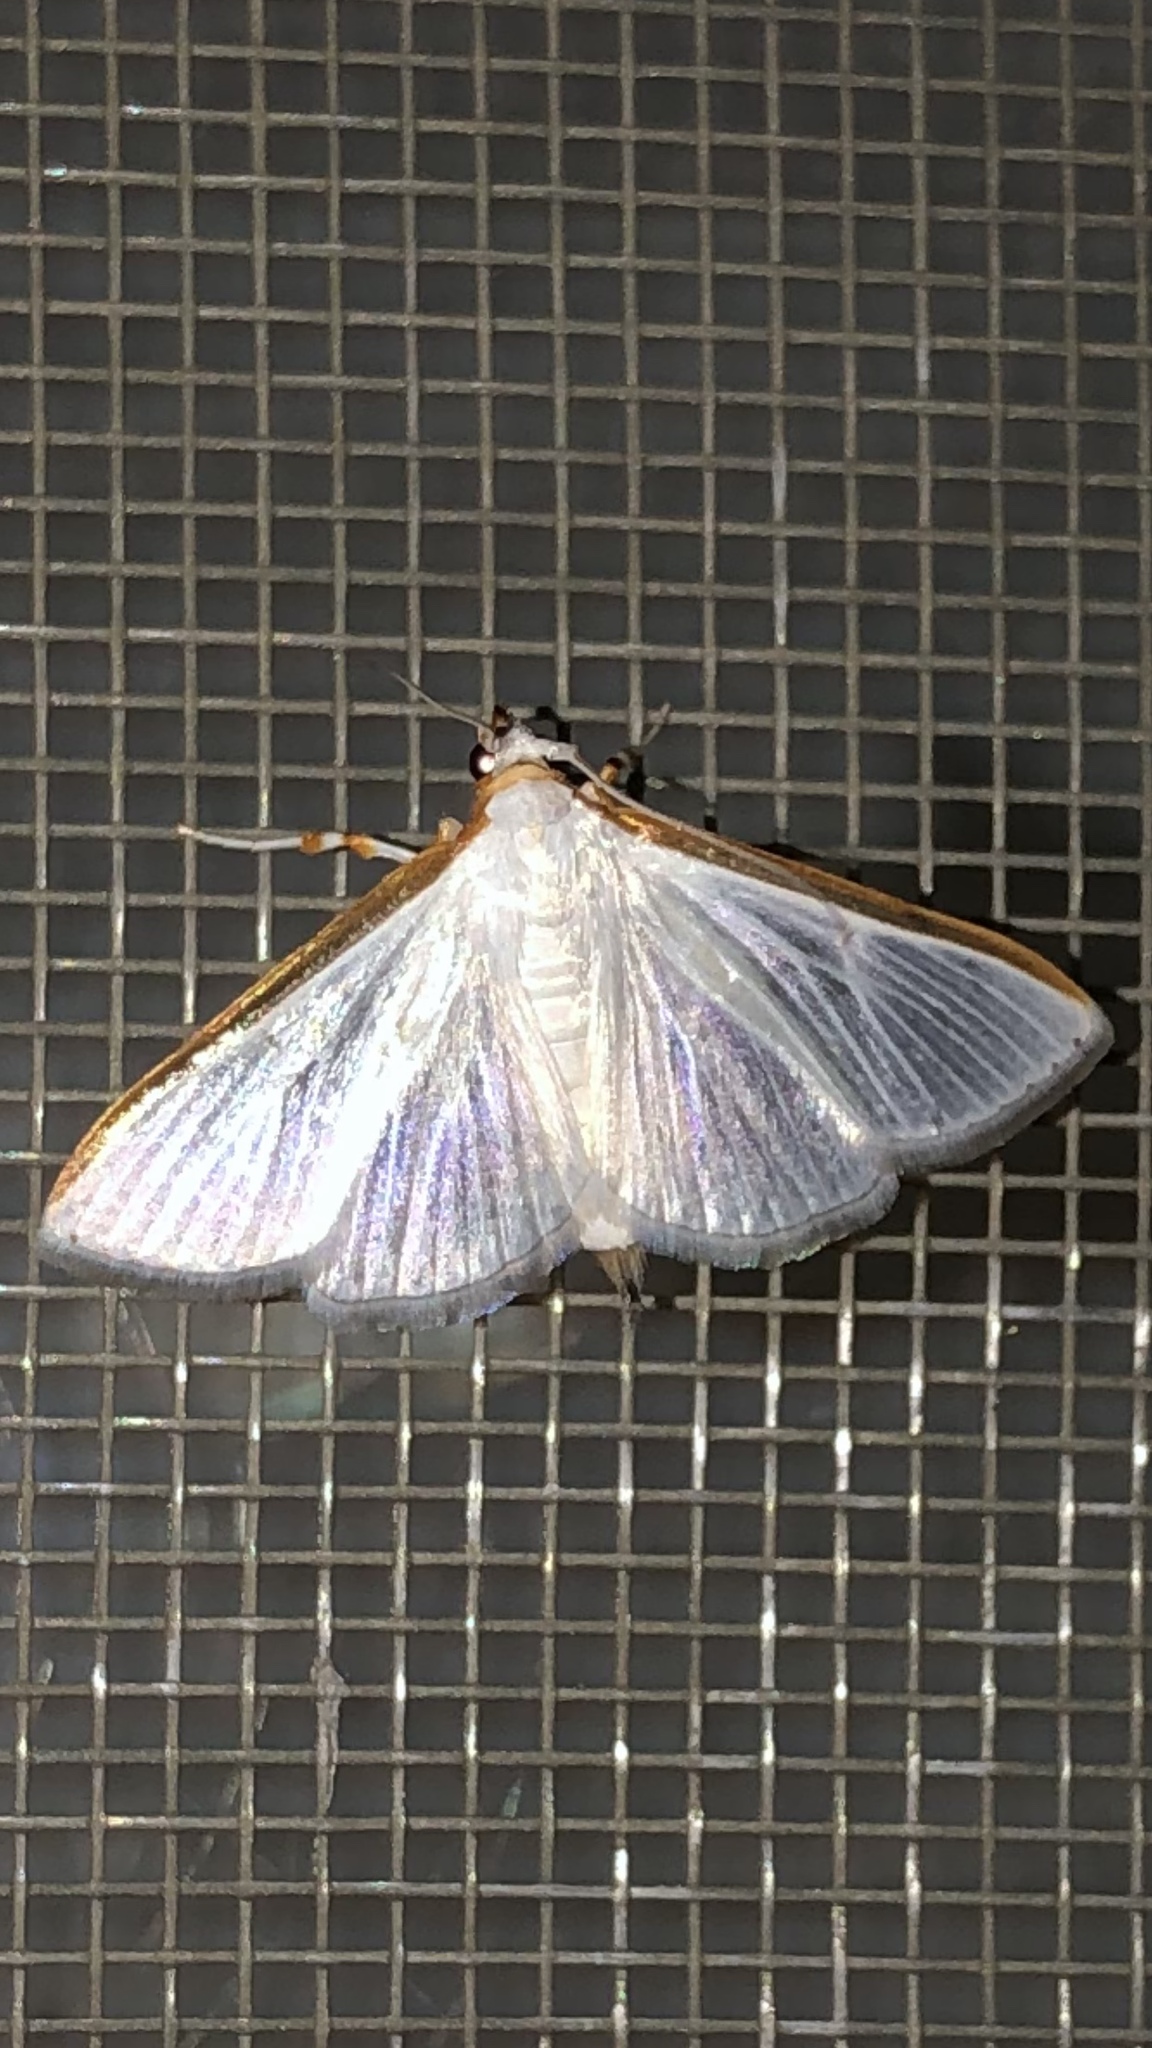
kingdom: Animalia
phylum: Arthropoda
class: Insecta
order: Lepidoptera
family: Crambidae
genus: Diaphania
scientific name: Diaphania costata
